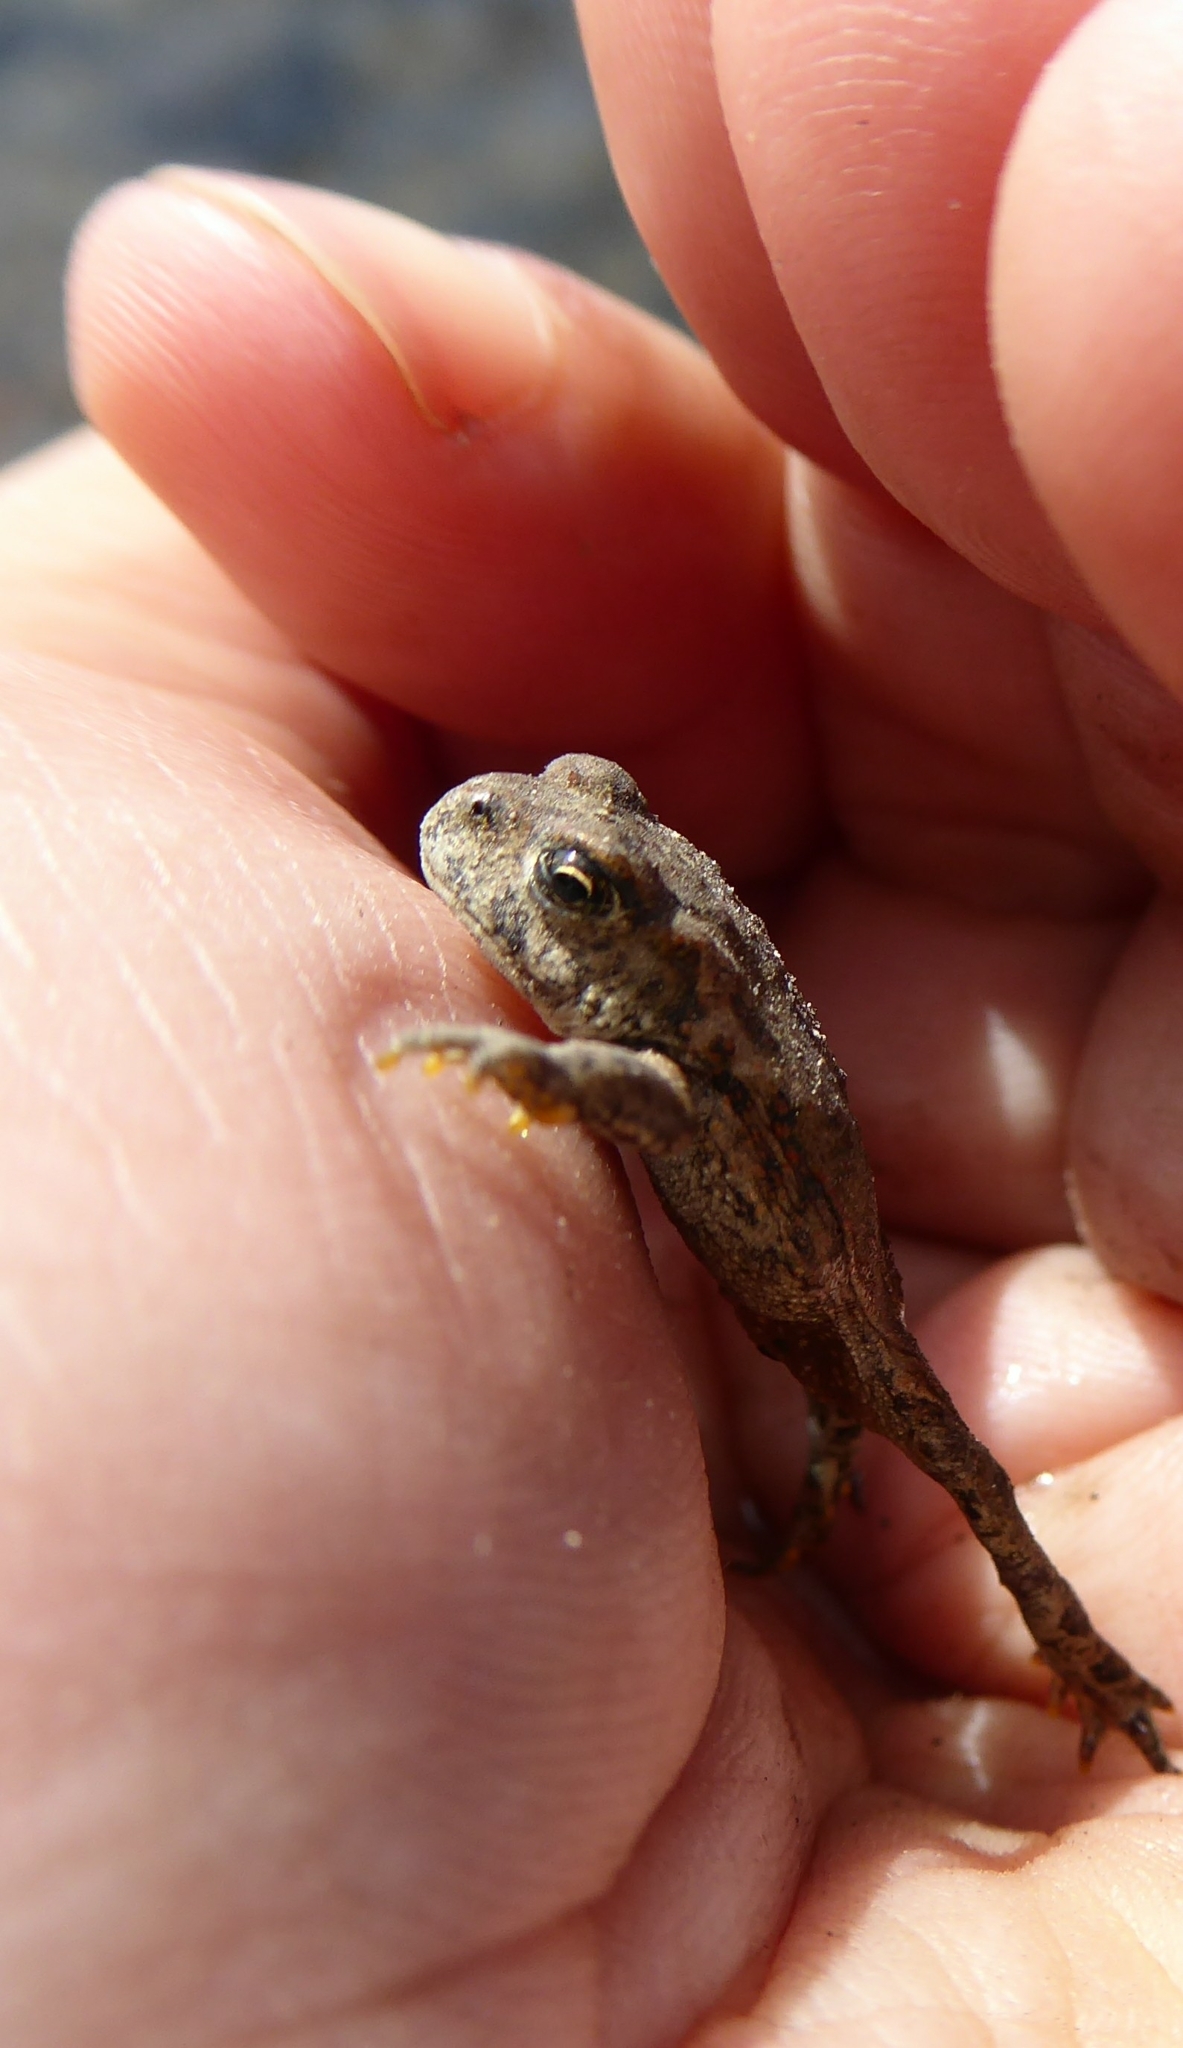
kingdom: Animalia
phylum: Chordata
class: Amphibia
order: Anura
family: Bufonidae
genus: Anaxyrus
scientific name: Anaxyrus boreas
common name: Western toad
